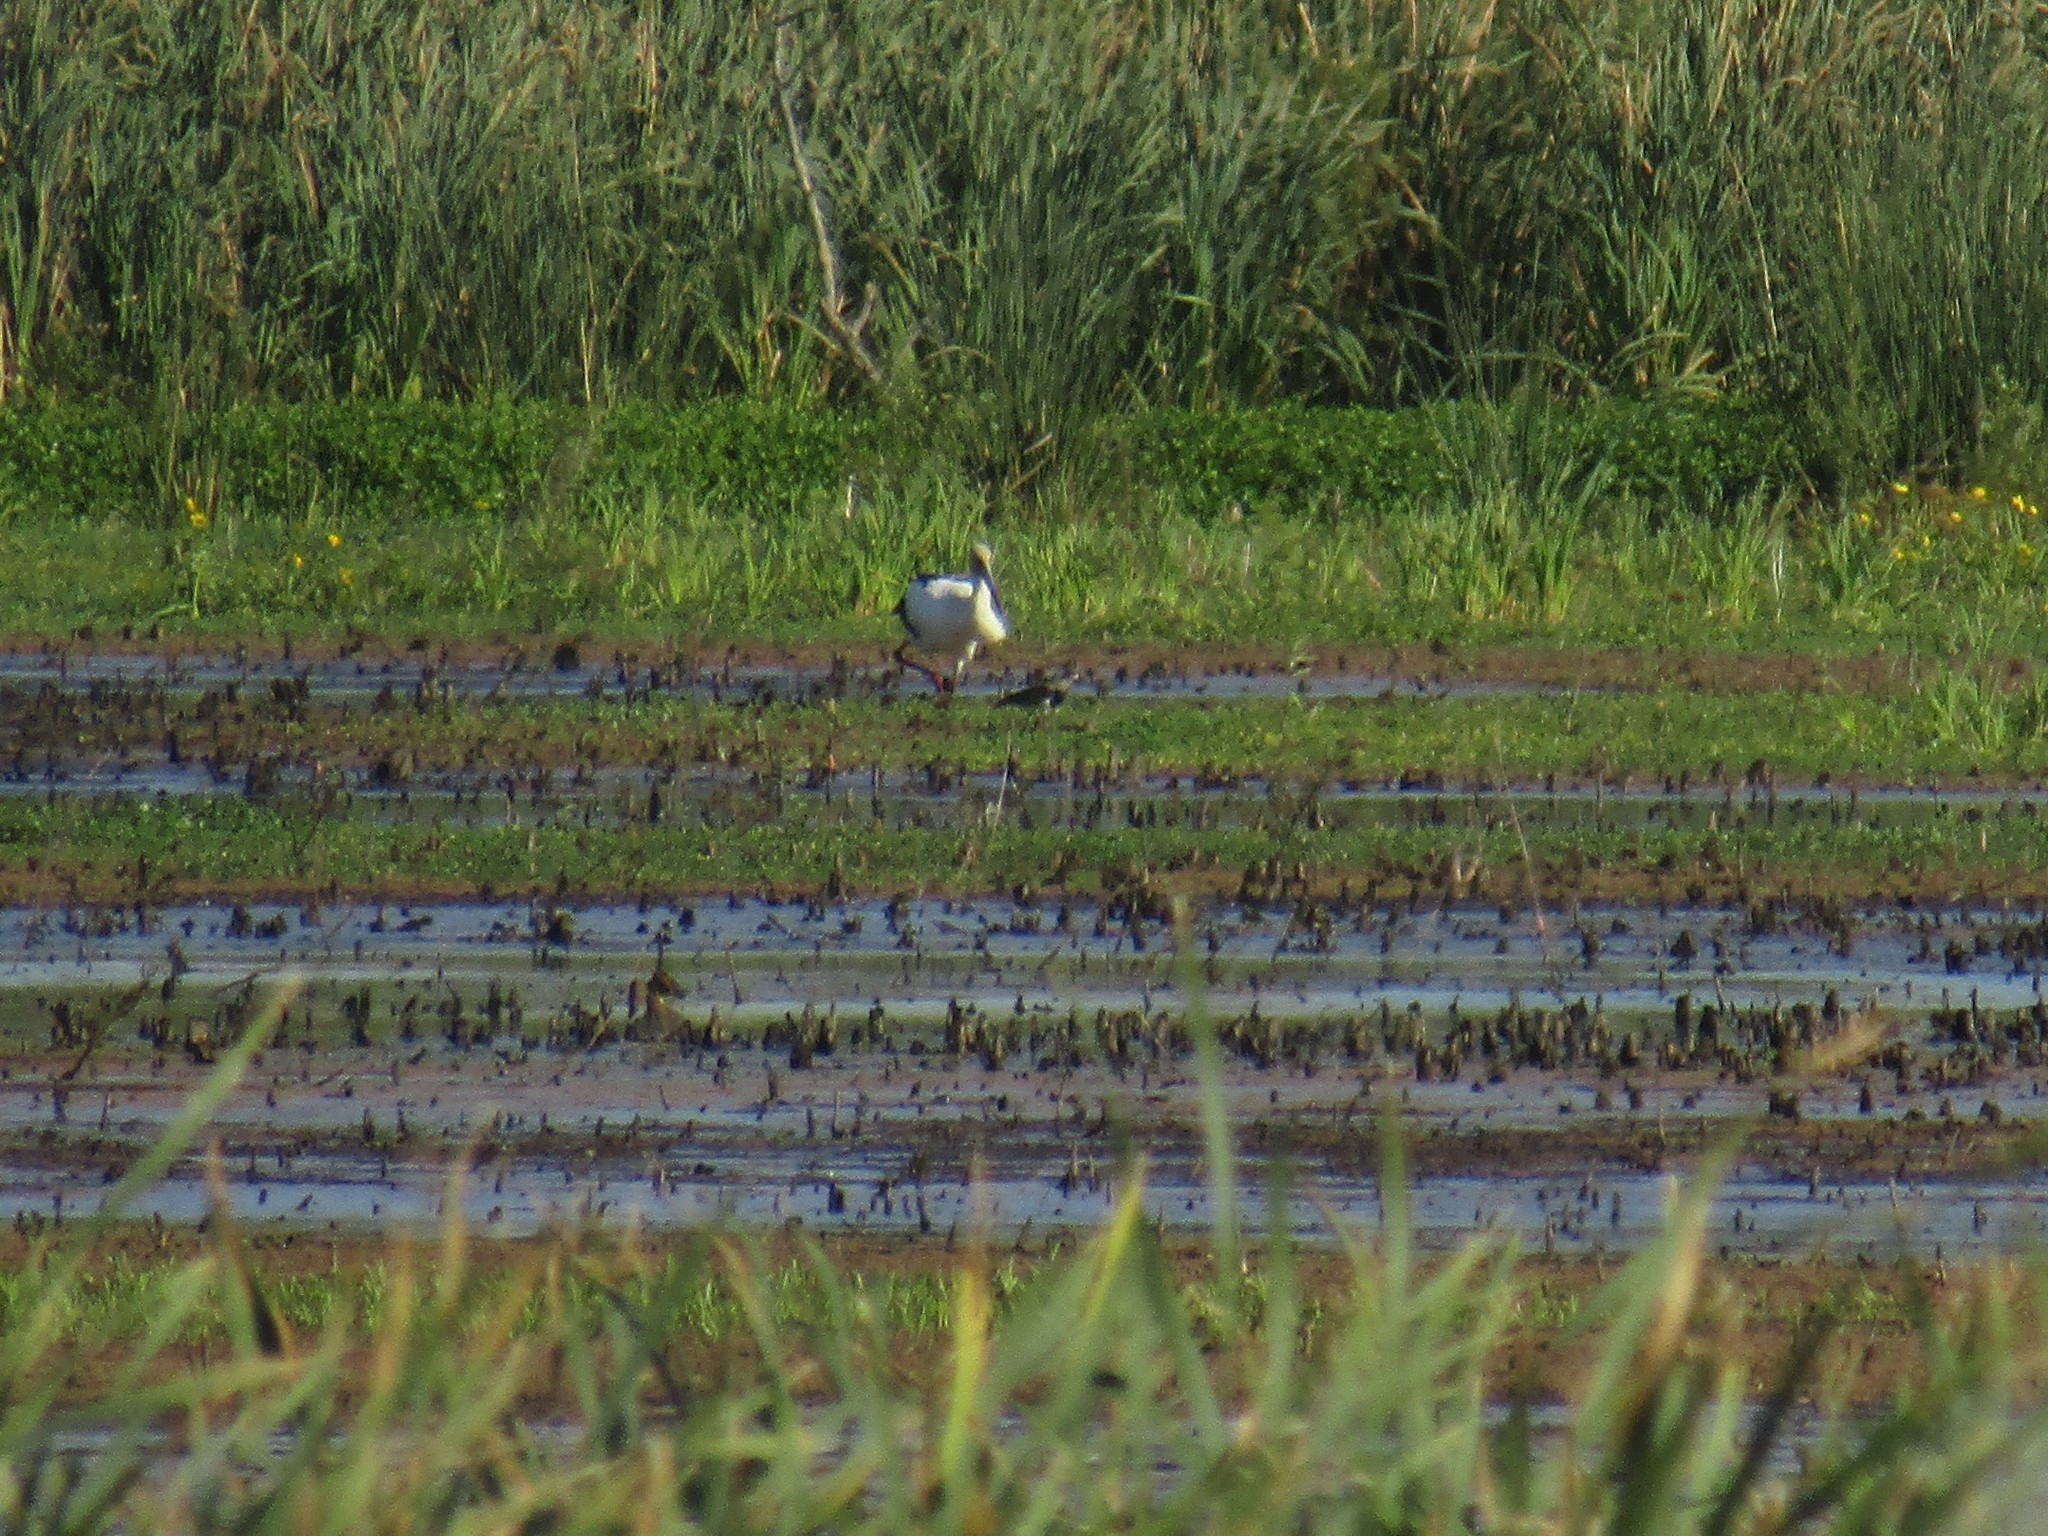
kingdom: Animalia
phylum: Chordata
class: Aves
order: Ciconiiformes
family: Ciconiidae
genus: Ciconia
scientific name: Ciconia maguari
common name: Maguari stork
